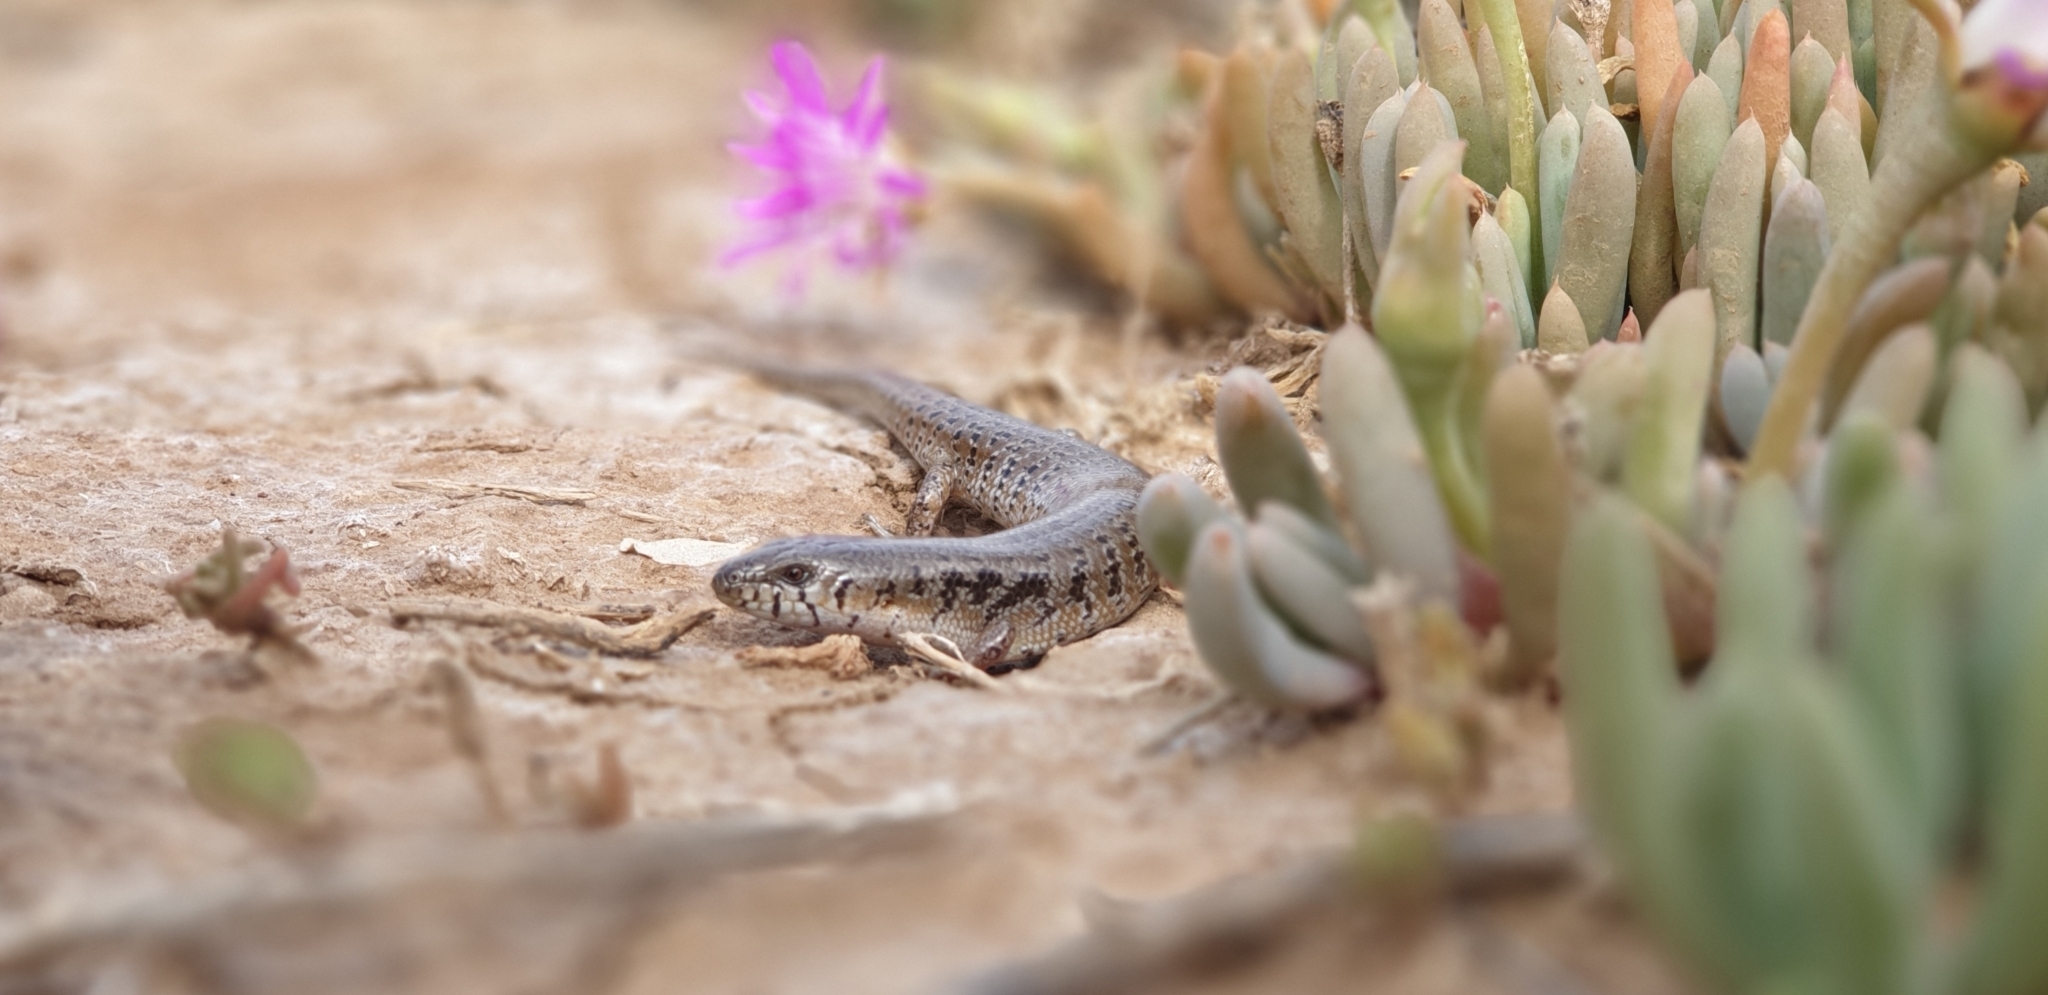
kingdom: Animalia
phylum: Chordata
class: Squamata
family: Scincidae
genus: Cyclodomorphus
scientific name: Cyclodomorphus venustus
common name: Slender bluetongue
